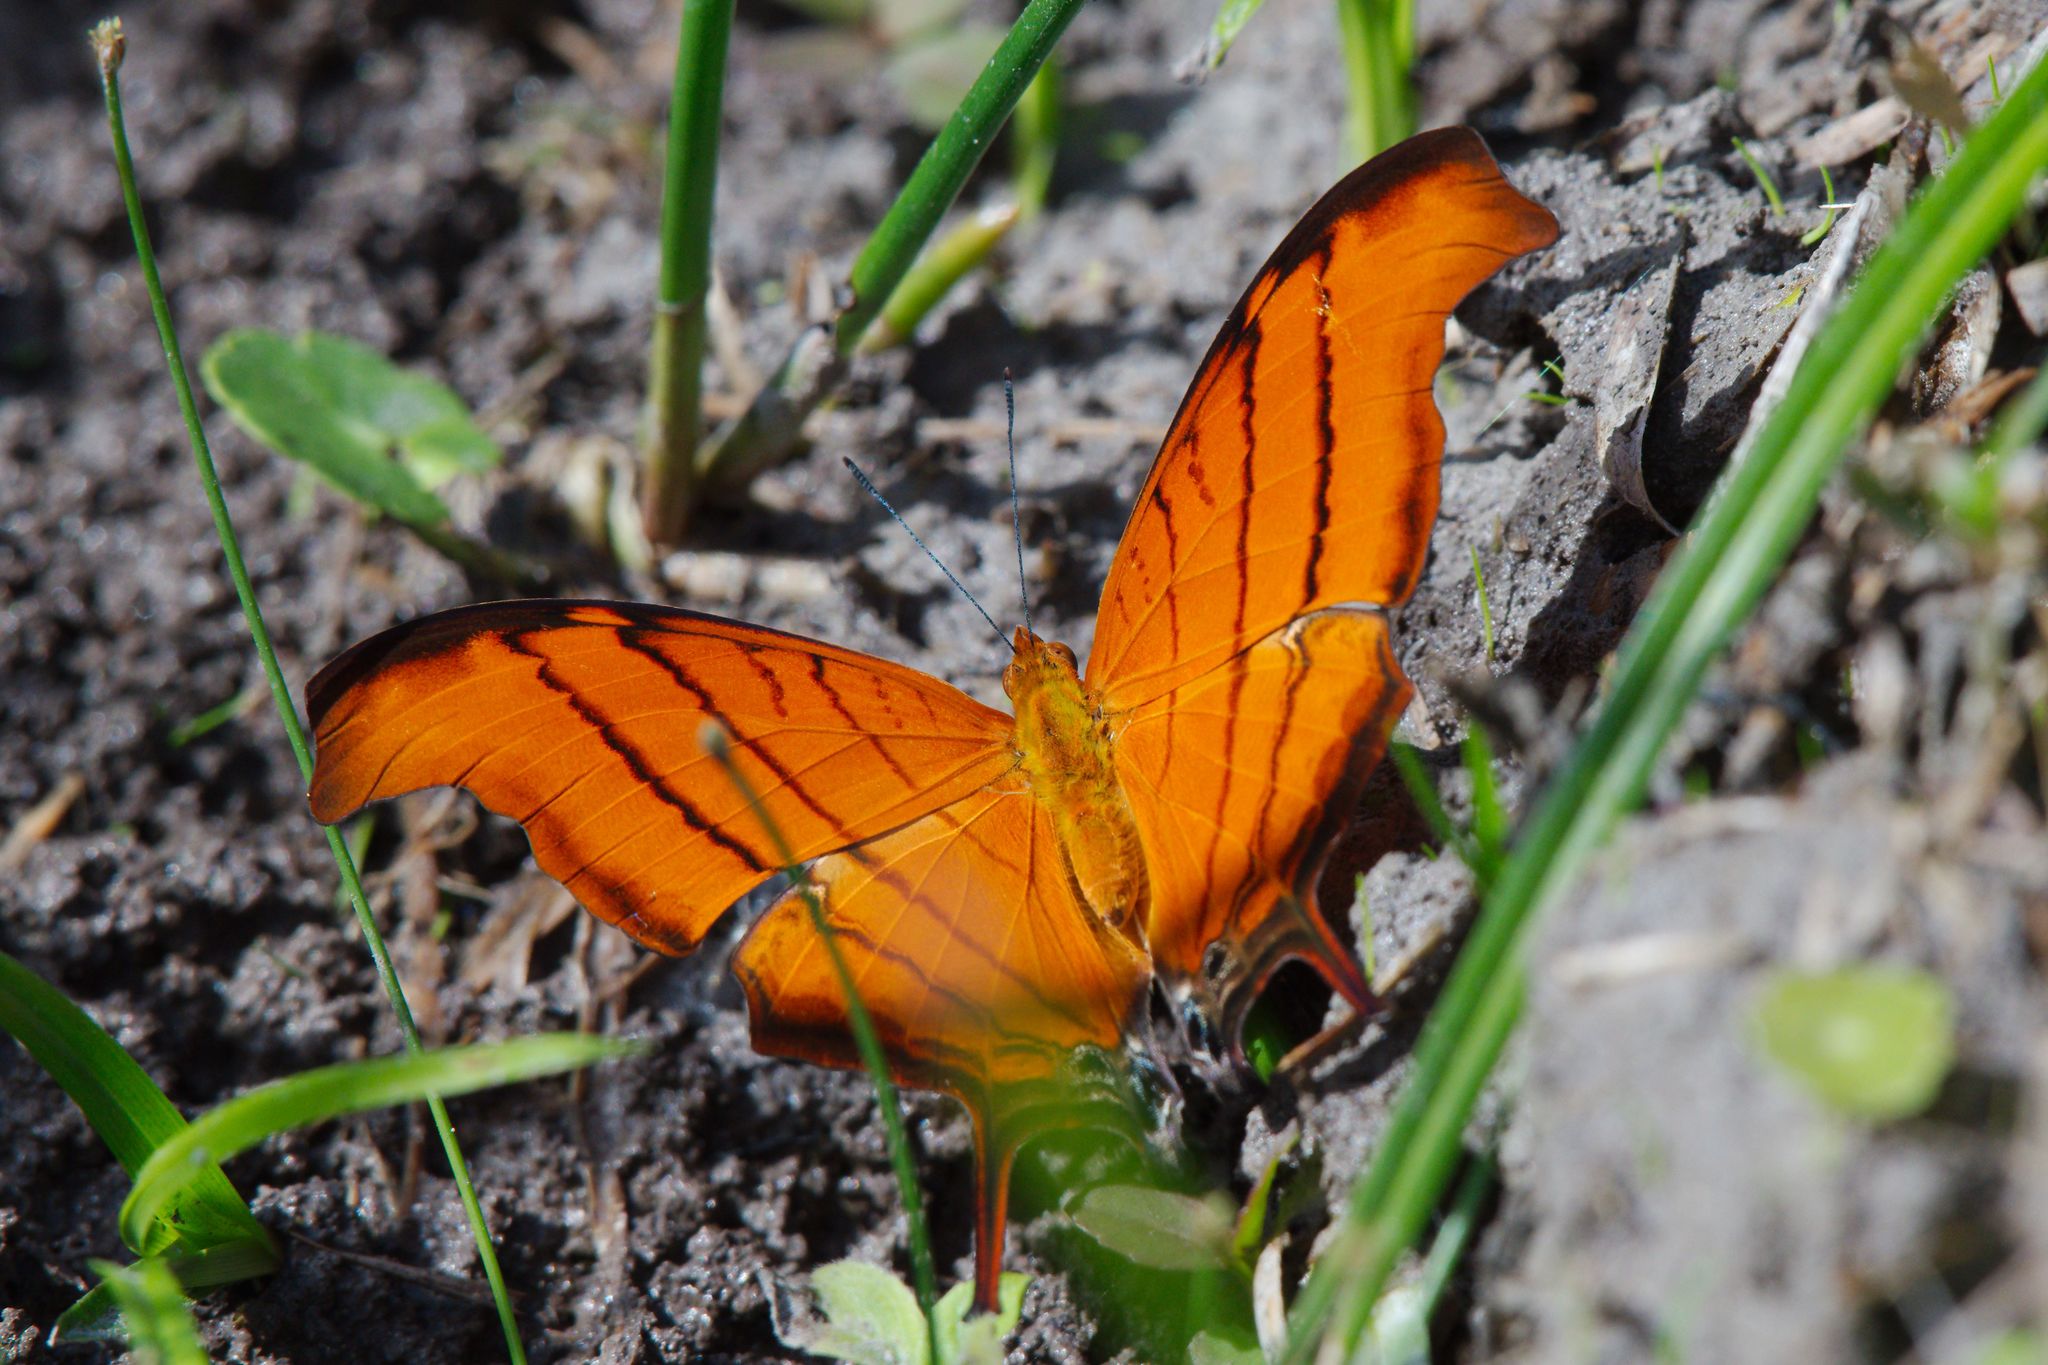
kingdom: Animalia
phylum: Arthropoda
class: Insecta
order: Lepidoptera
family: Nymphalidae
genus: Marpesia
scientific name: Marpesia petreus
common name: Red dagger wing
